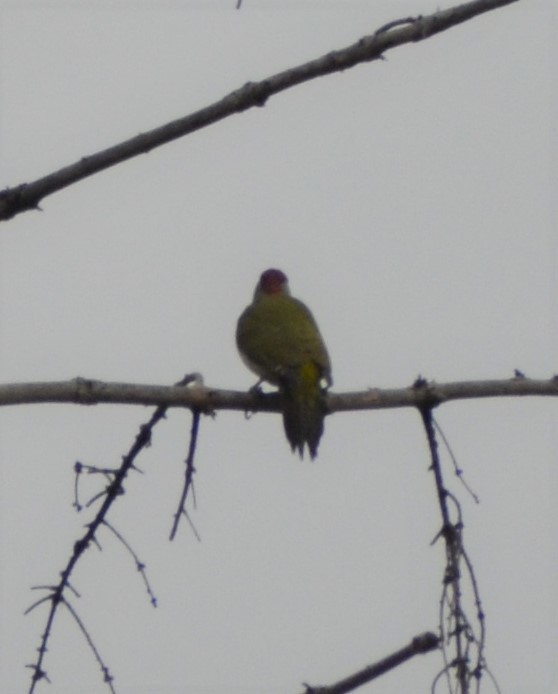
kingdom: Animalia
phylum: Chordata
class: Aves
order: Piciformes
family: Picidae
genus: Picus
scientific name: Picus viridis
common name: European green woodpecker
